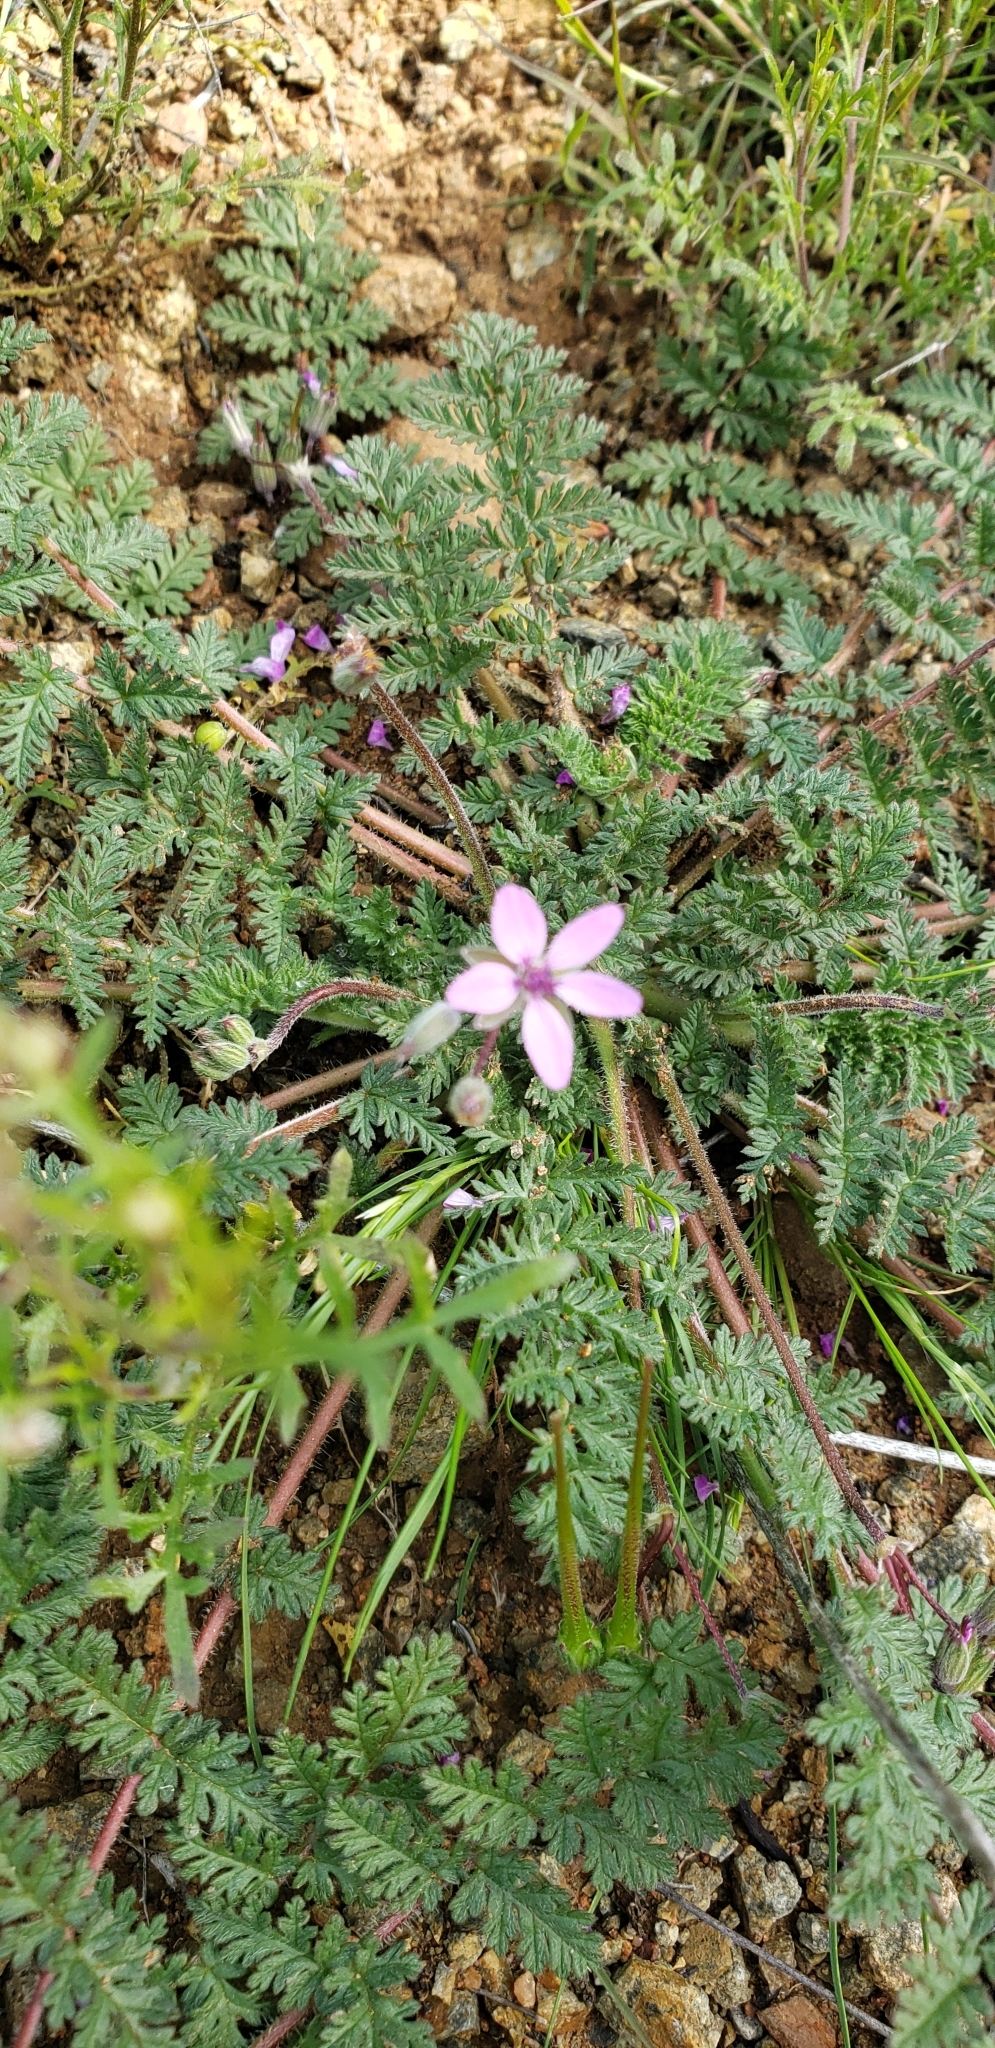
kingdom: Plantae
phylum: Tracheophyta
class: Magnoliopsida
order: Geraniales
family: Geraniaceae
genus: Erodium
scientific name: Erodium cicutarium
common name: Common stork's-bill
